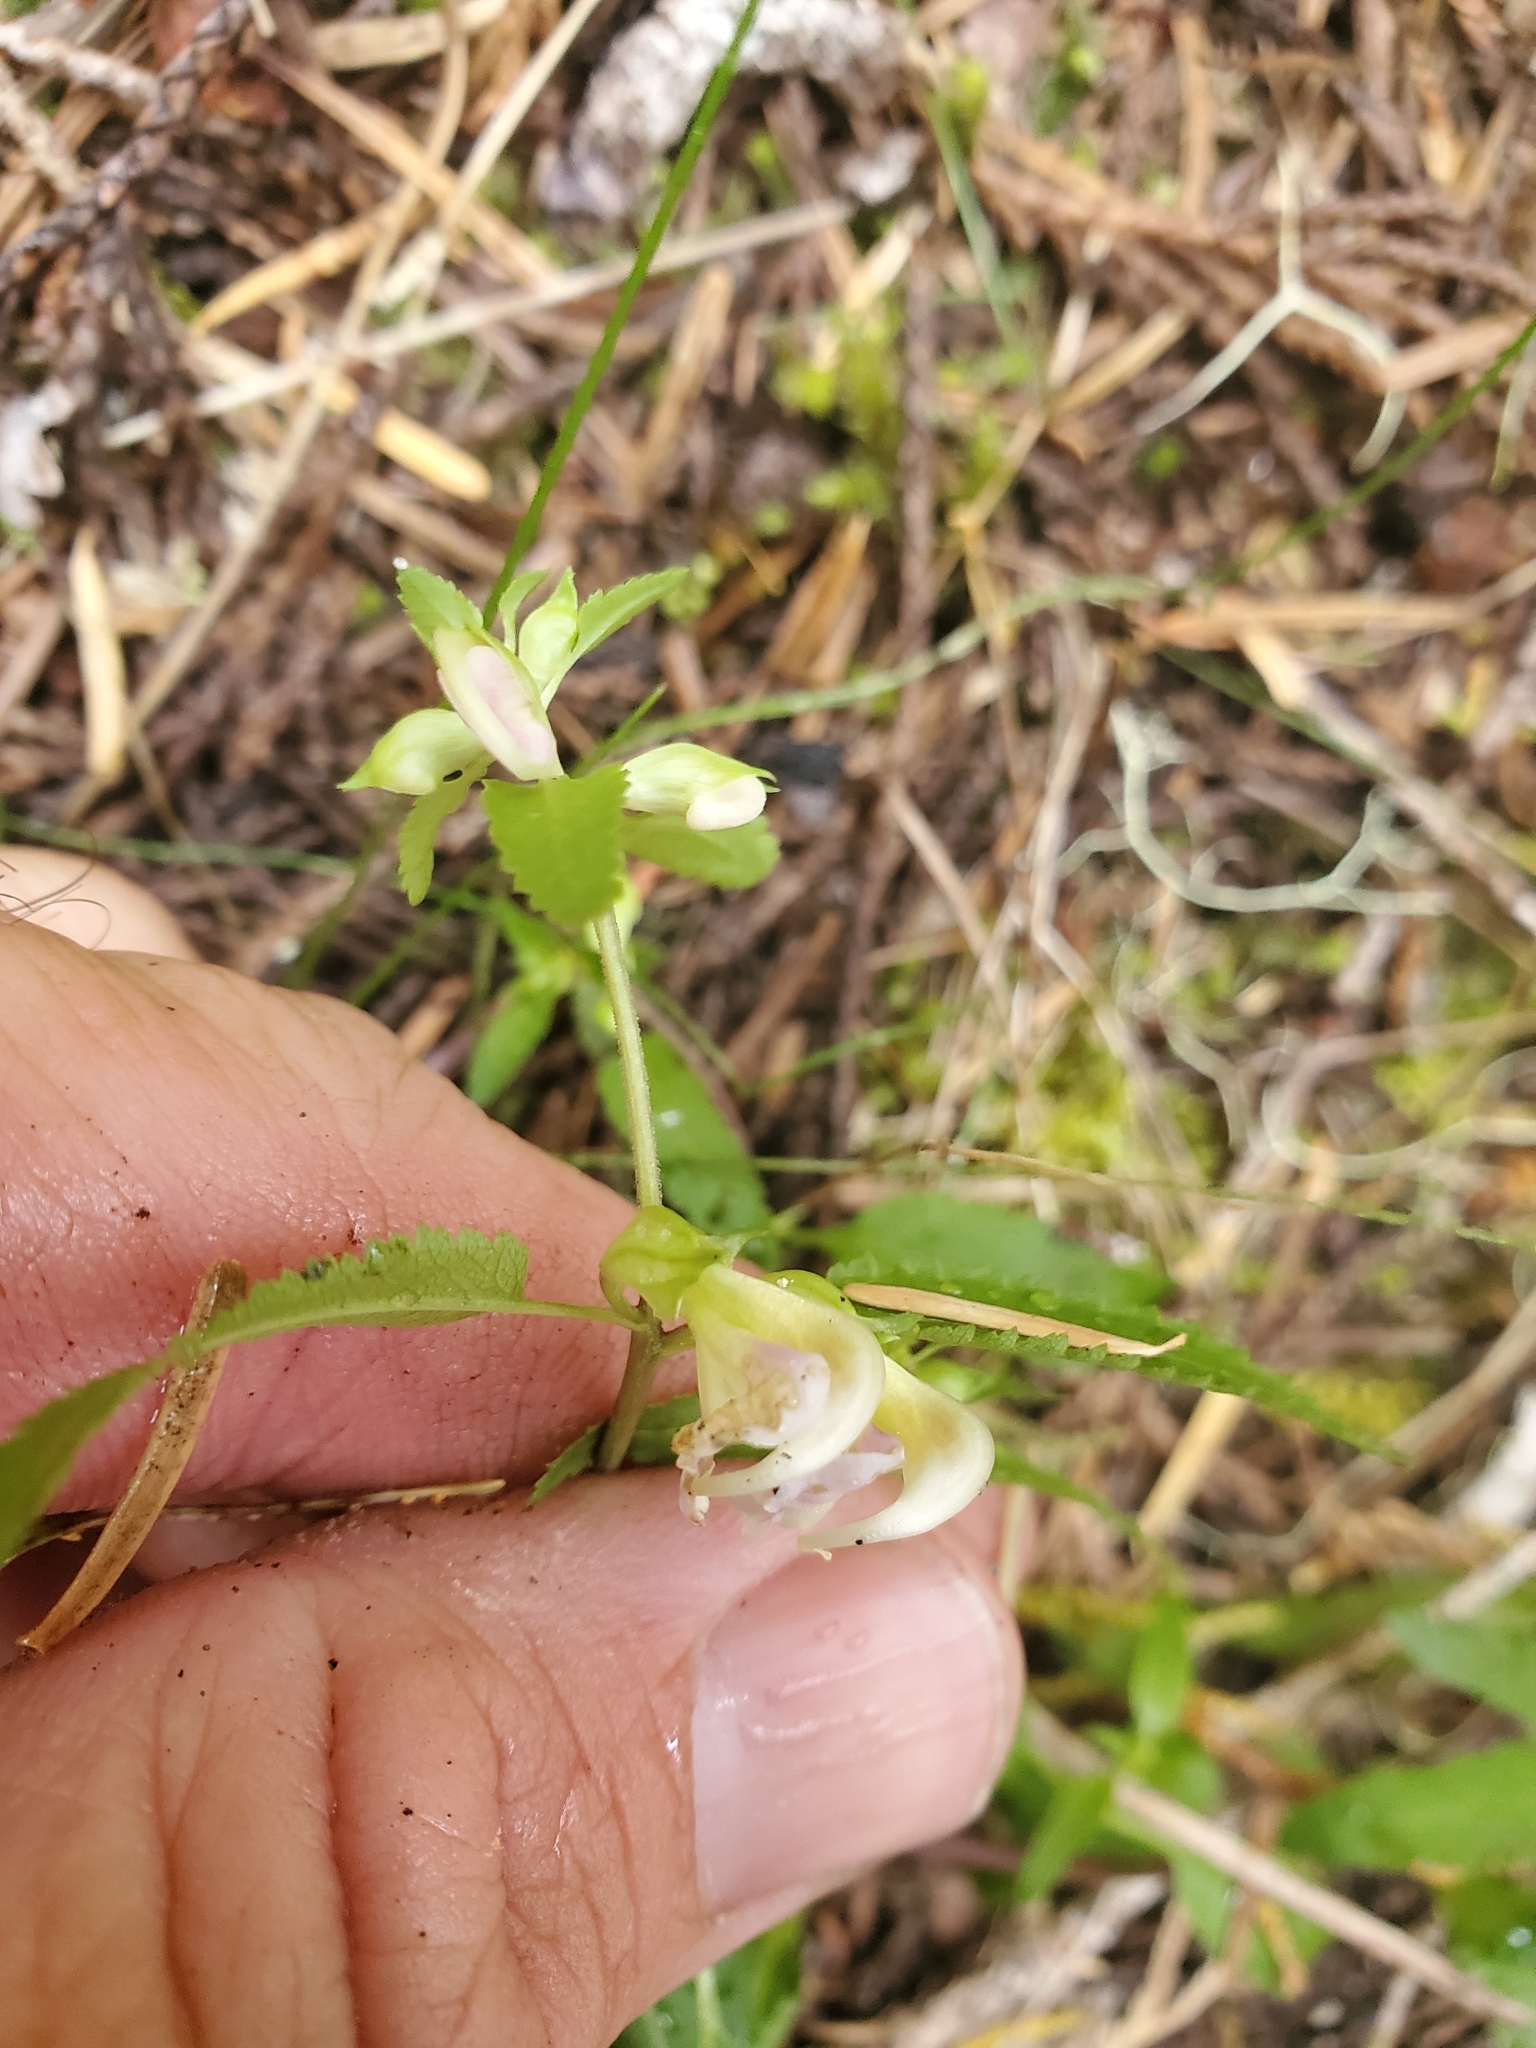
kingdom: Plantae
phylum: Tracheophyta
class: Magnoliopsida
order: Lamiales
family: Orobanchaceae
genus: Pedicularis
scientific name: Pedicularis racemosa
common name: Leafy lousewort
